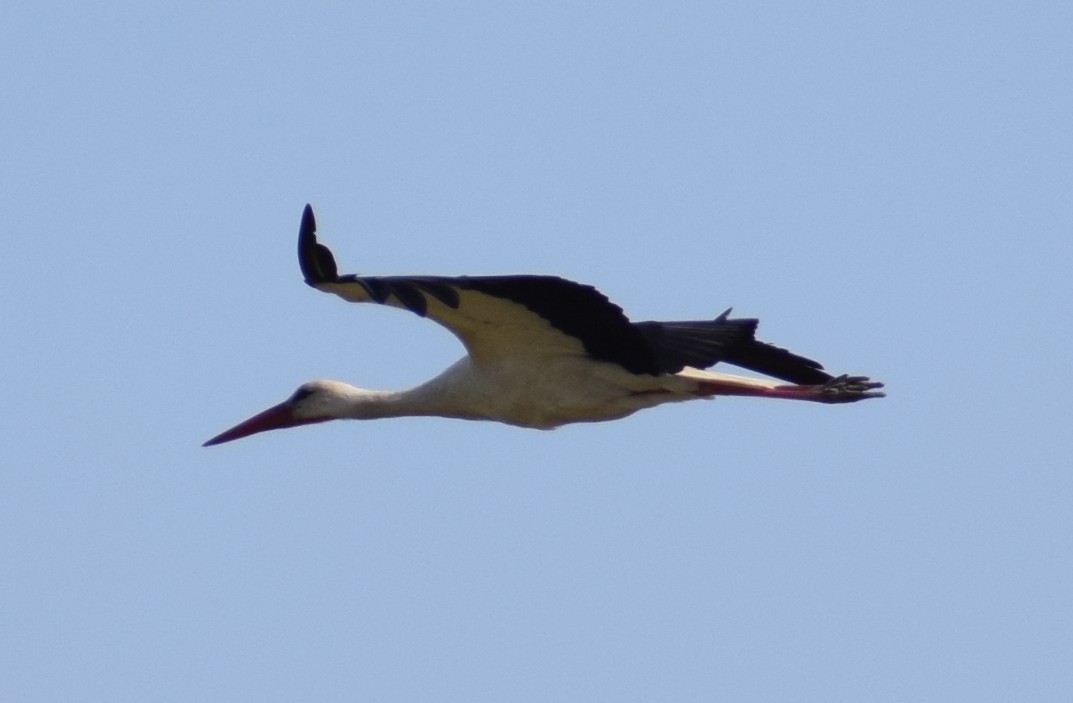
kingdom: Animalia
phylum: Chordata
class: Aves
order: Ciconiiformes
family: Ciconiidae
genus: Ciconia
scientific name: Ciconia ciconia
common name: White stork
